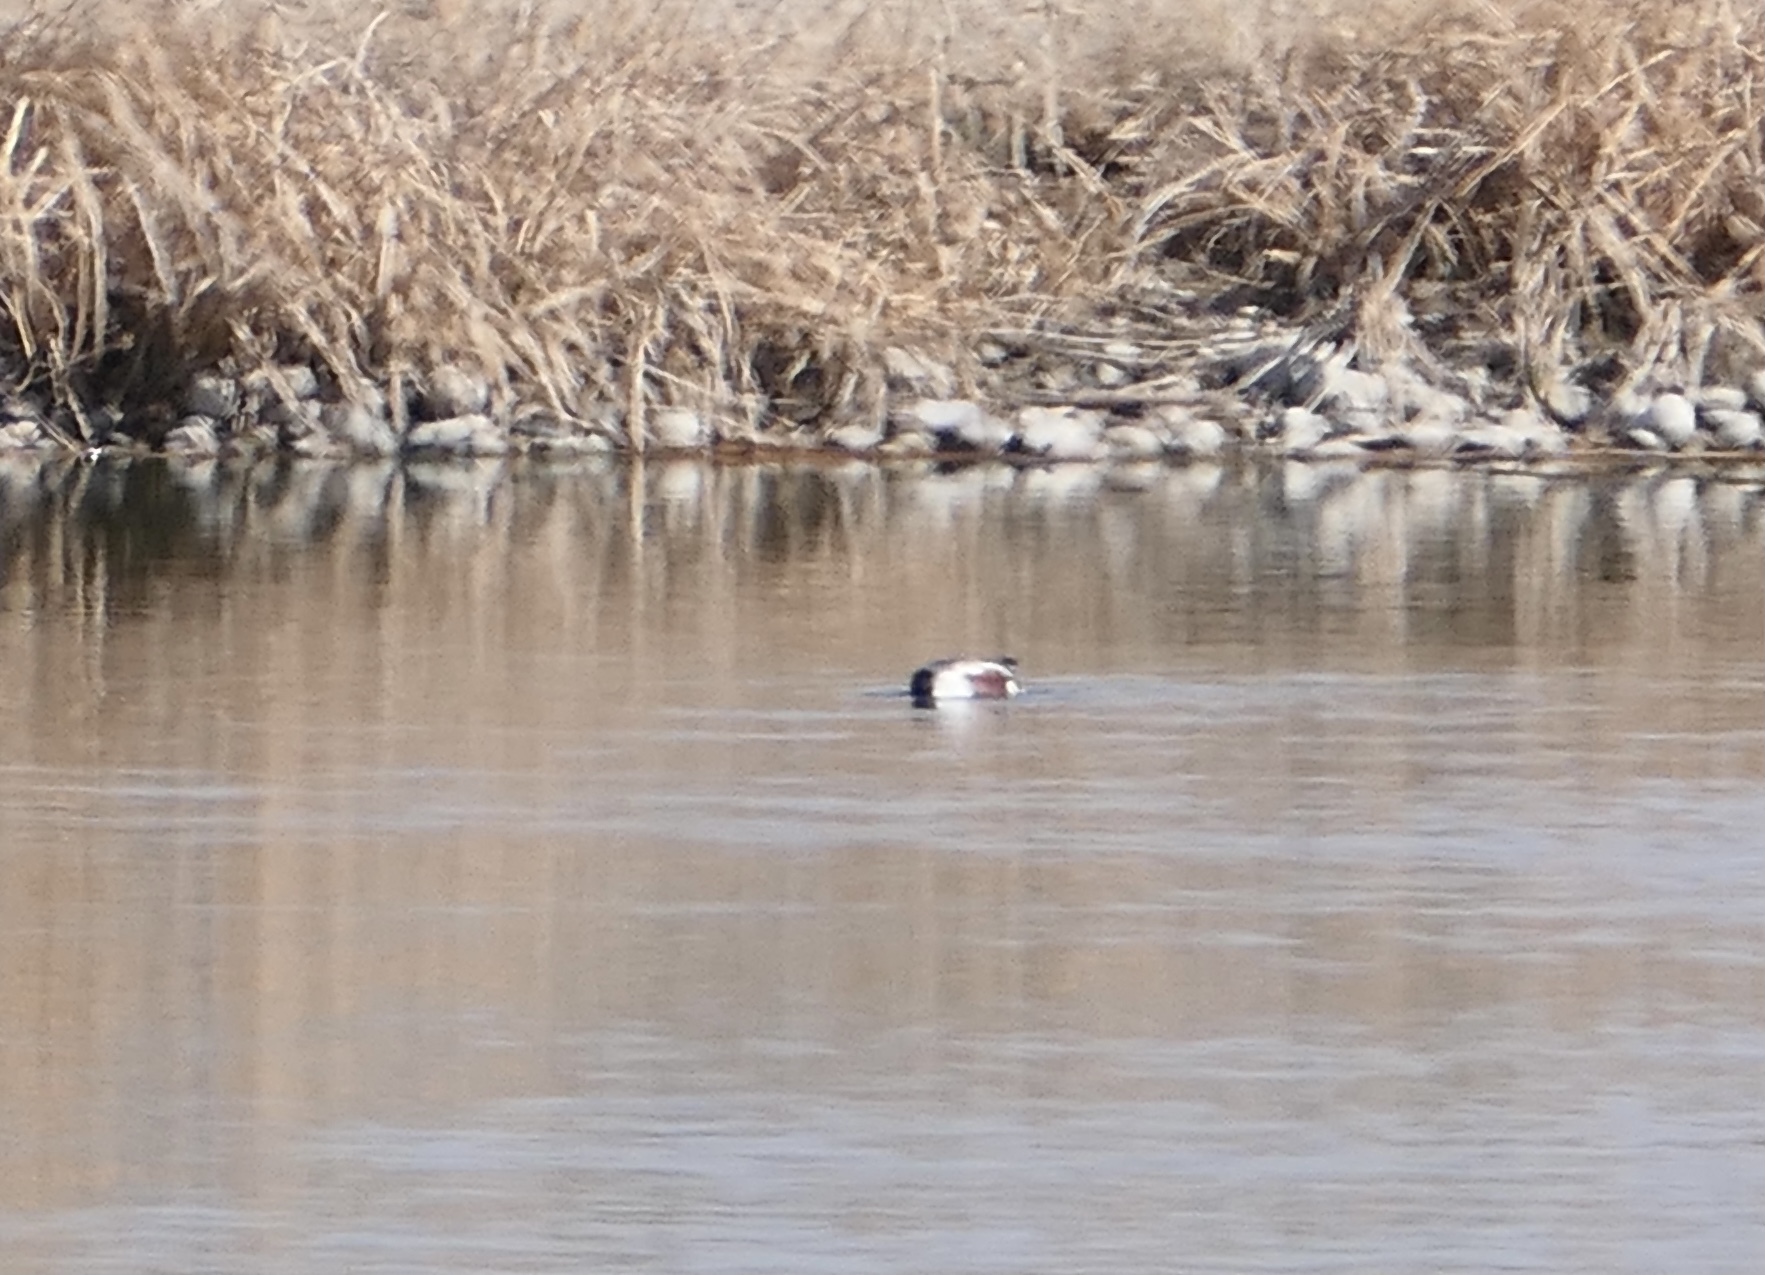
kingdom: Animalia
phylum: Chordata
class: Aves
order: Anseriformes
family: Anatidae
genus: Spatula
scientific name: Spatula clypeata
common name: Northern shoveler
